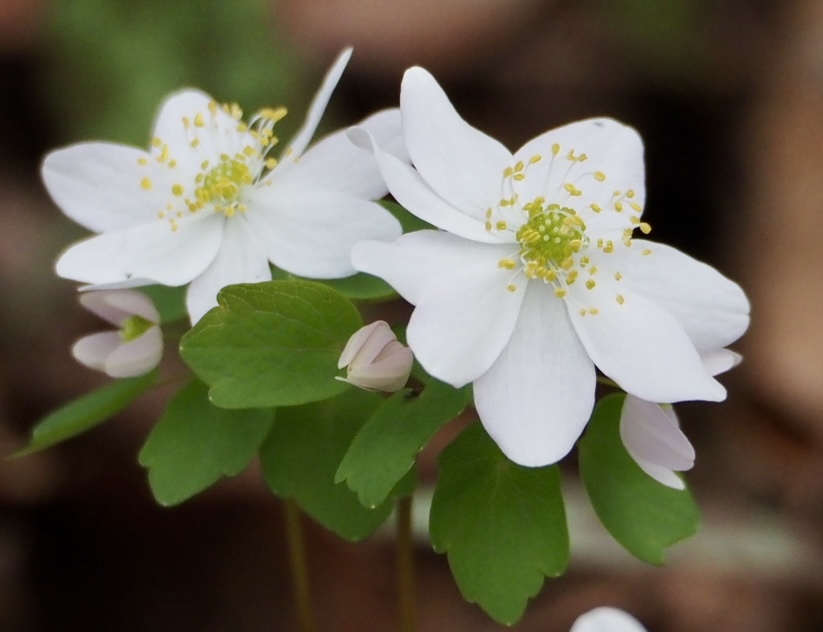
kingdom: Plantae
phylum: Tracheophyta
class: Magnoliopsida
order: Ranunculales
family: Ranunculaceae
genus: Thalictrum
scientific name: Thalictrum thalictroides
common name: Rue-anemone
